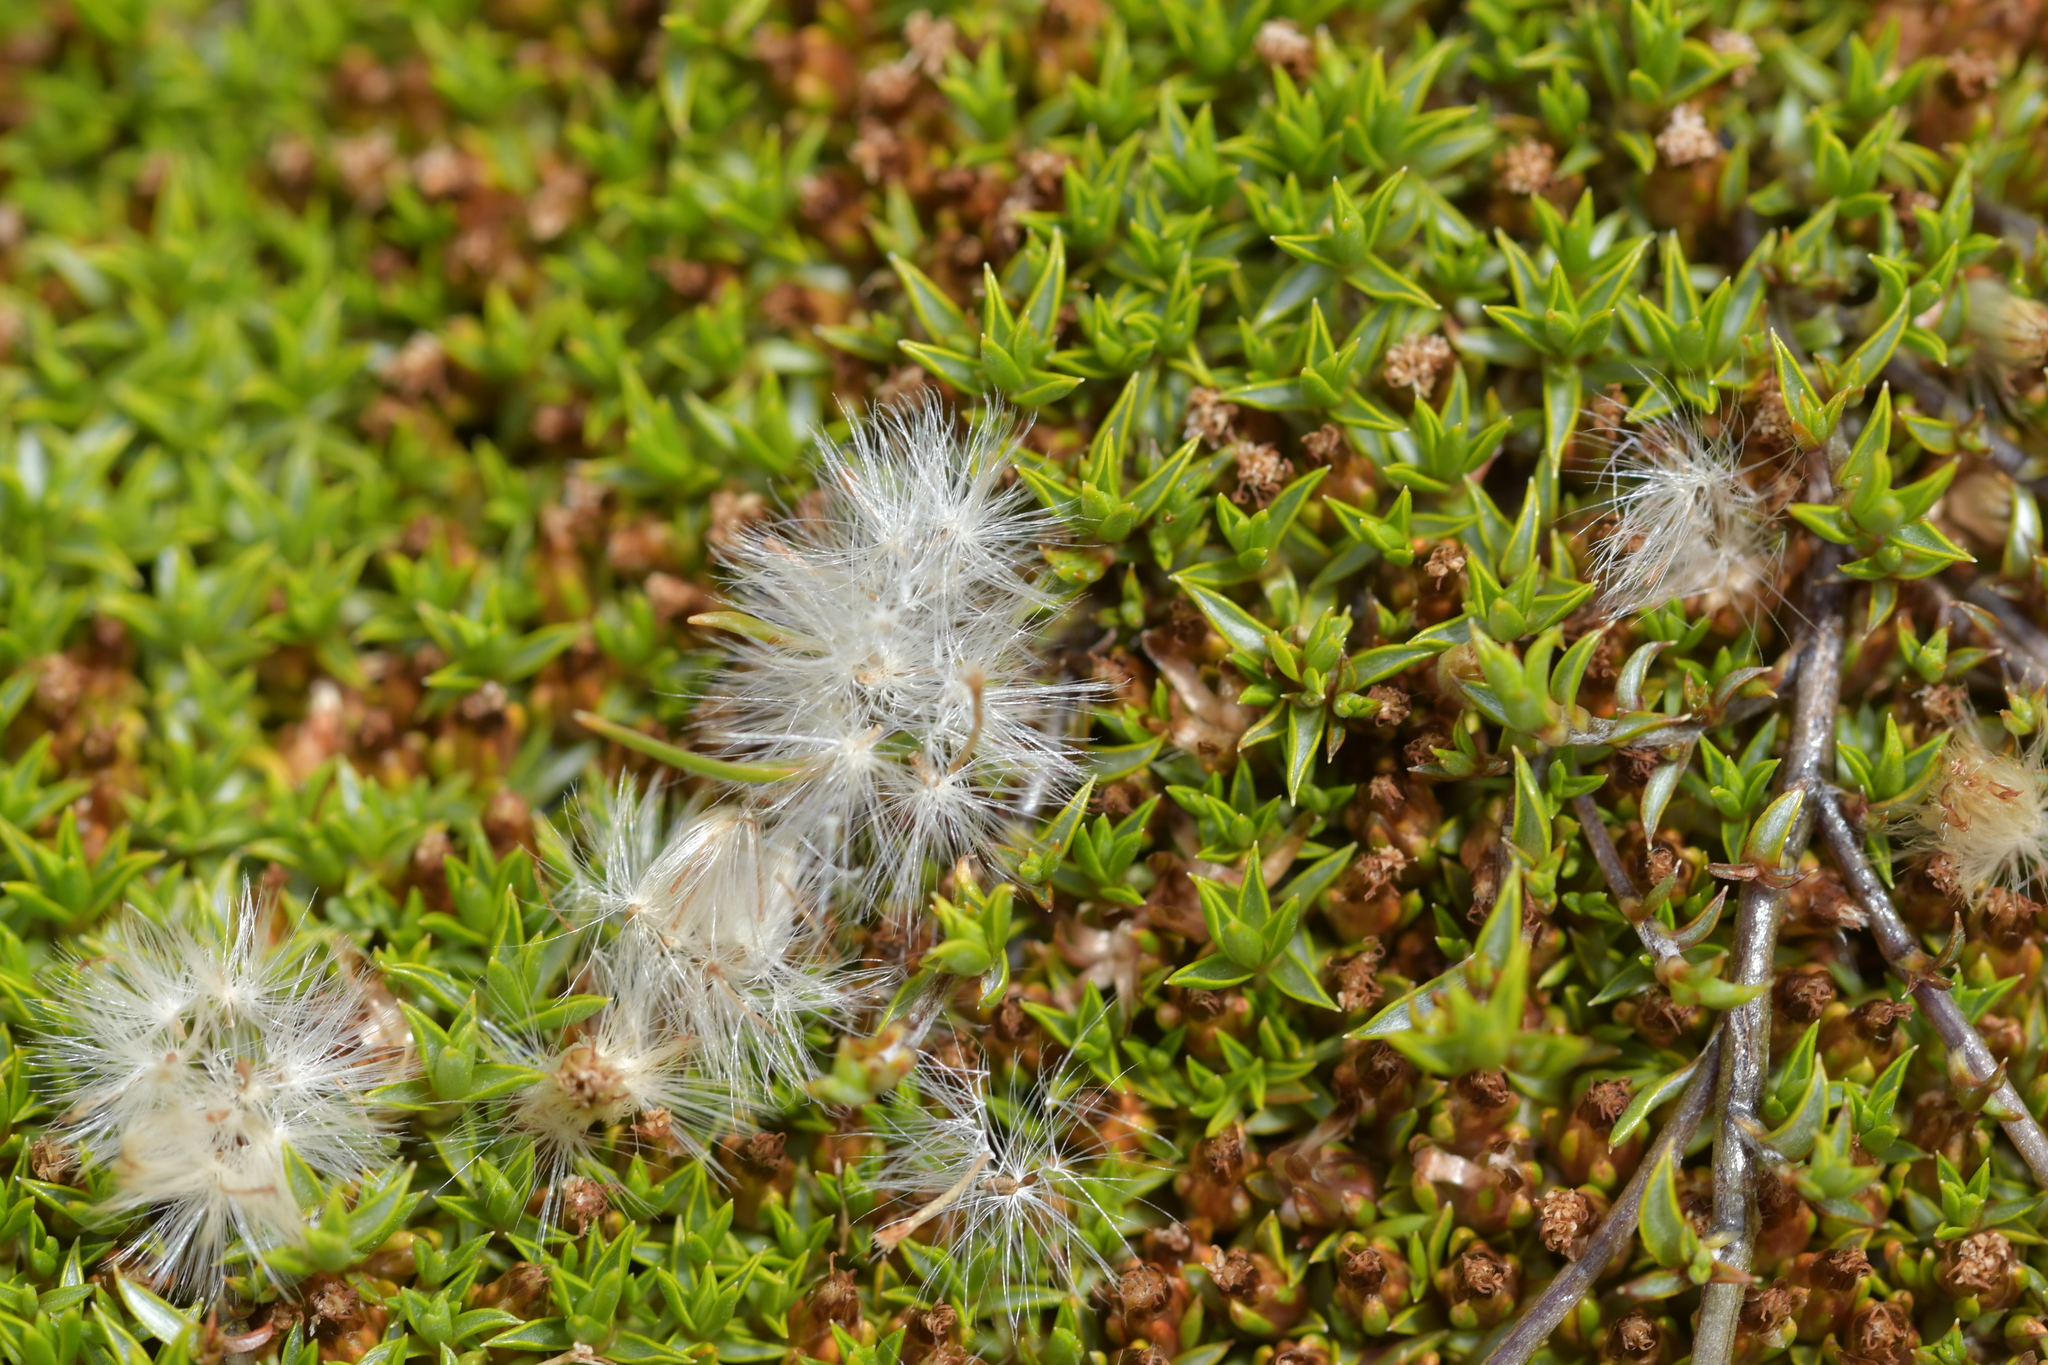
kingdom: Plantae
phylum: Tracheophyta
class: Magnoliopsida
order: Asterales
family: Asteraceae
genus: Raoulia
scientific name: Raoulia tenuicaulis
